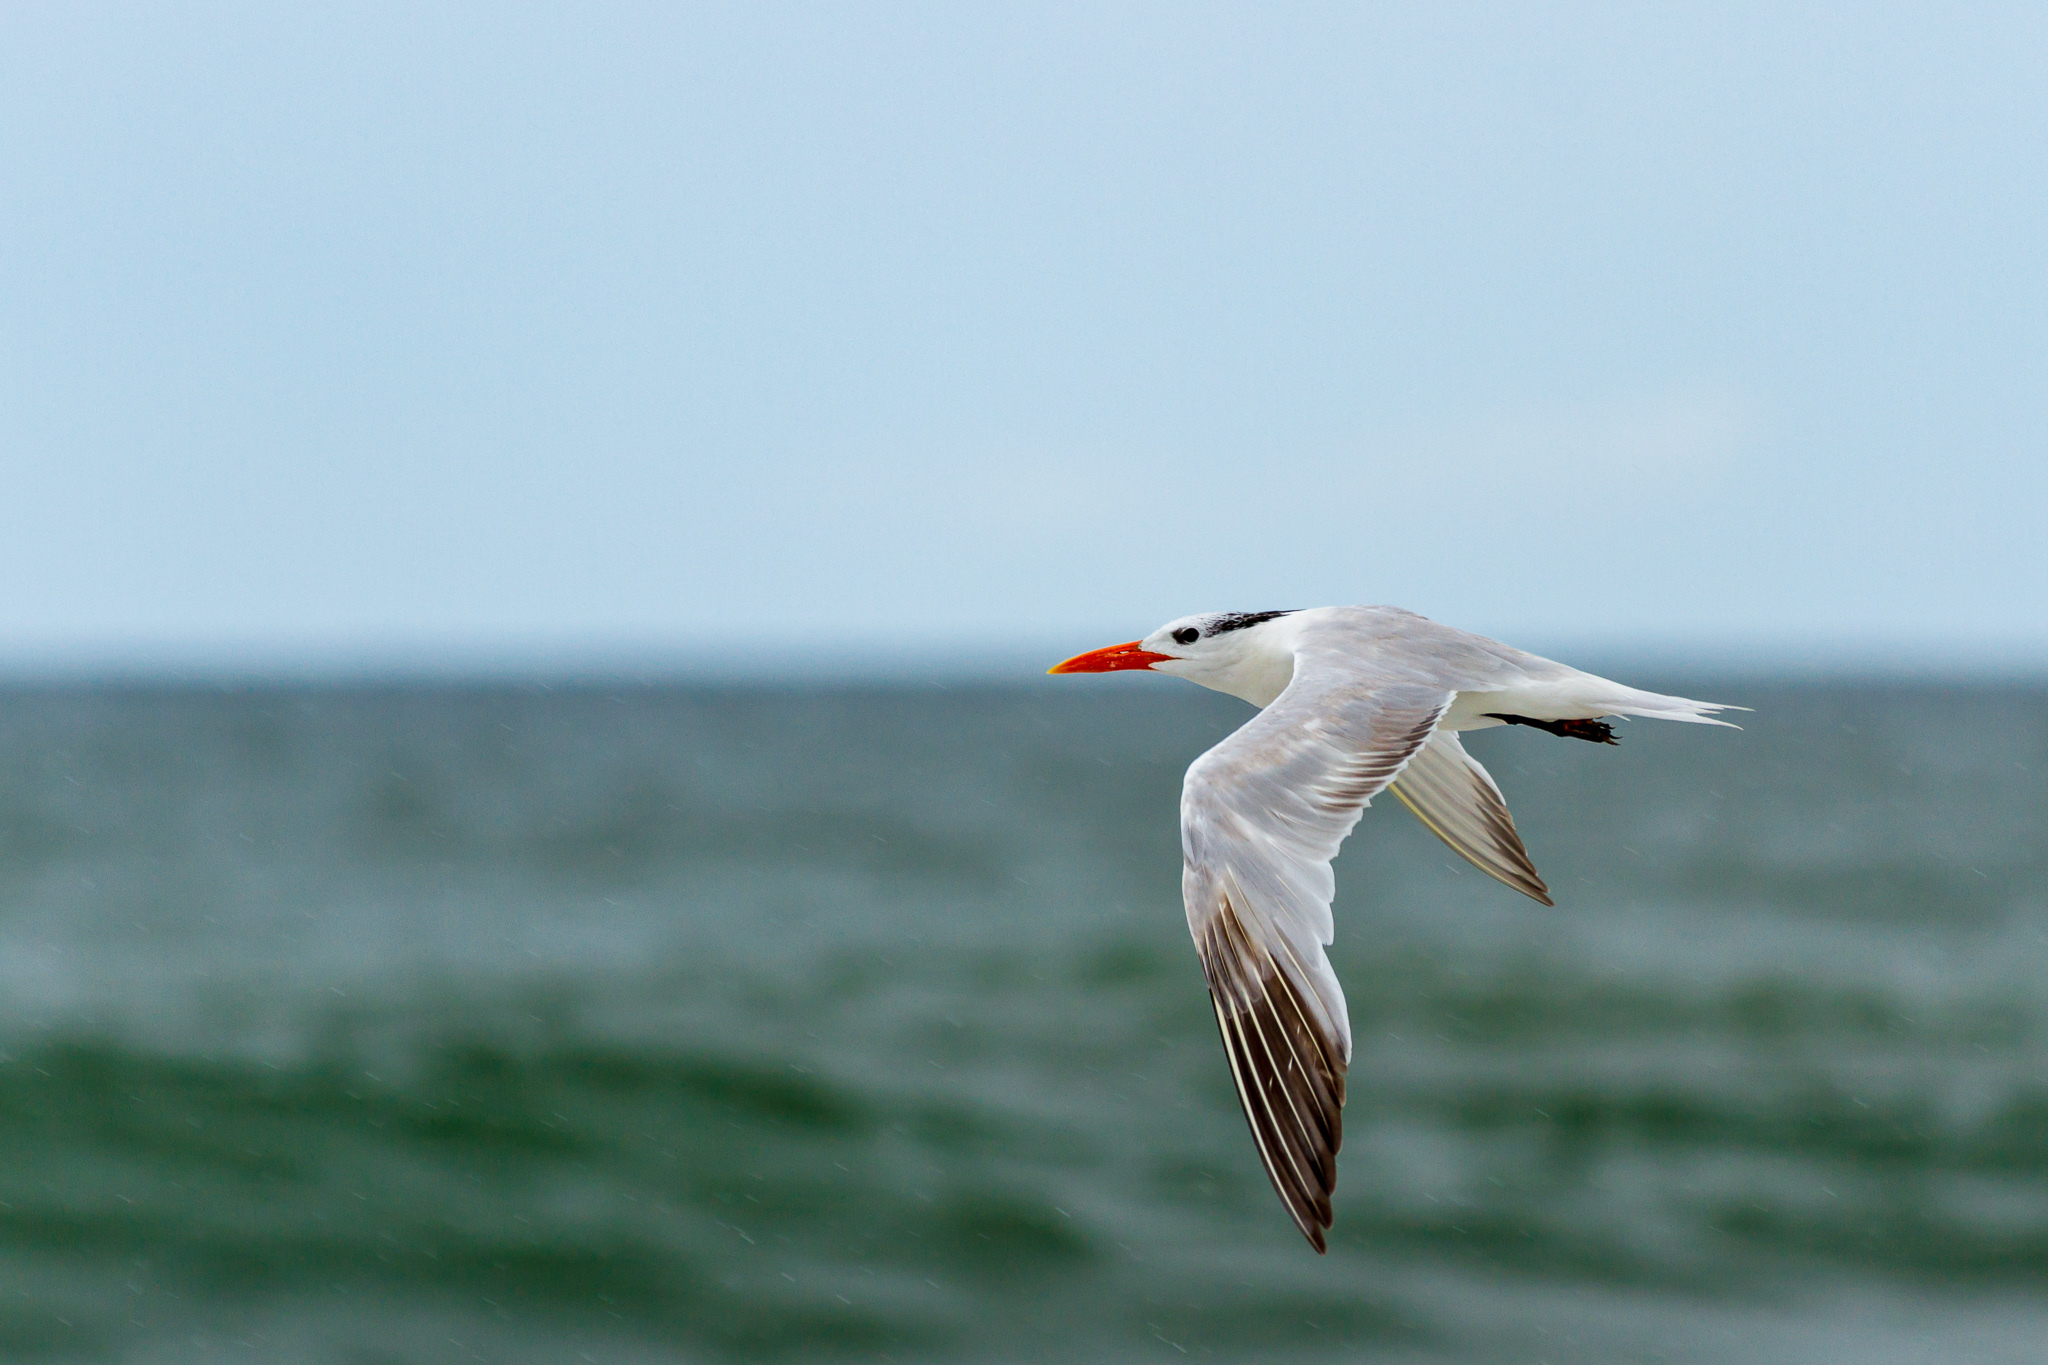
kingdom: Animalia
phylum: Chordata
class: Aves
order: Charadriiformes
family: Laridae
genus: Thalasseus
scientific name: Thalasseus maximus
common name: Royal tern
